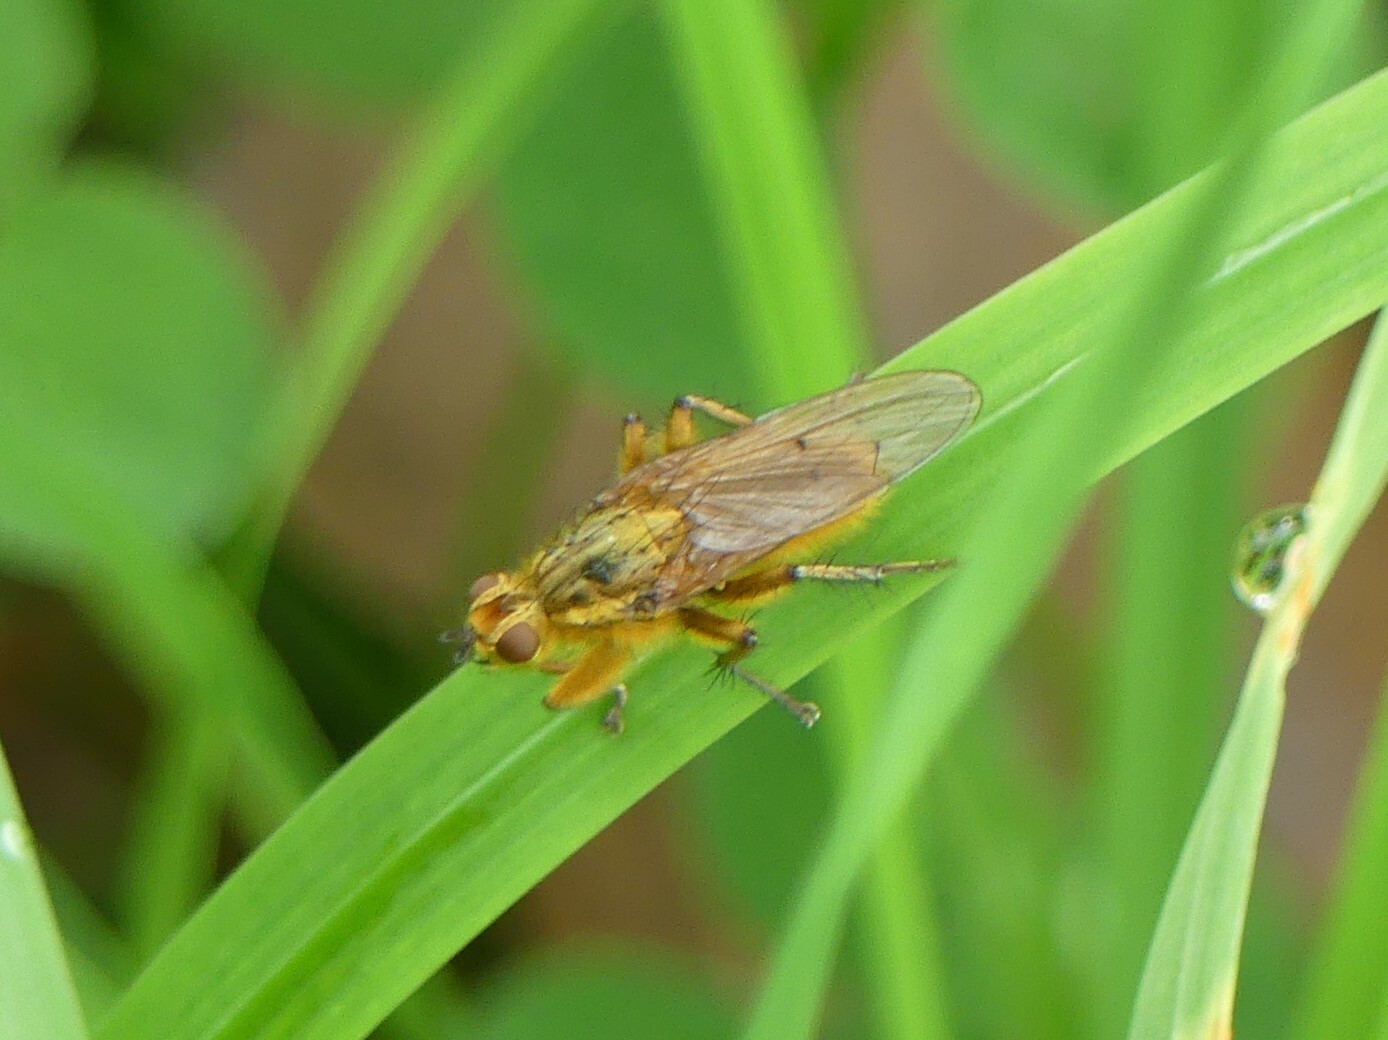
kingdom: Animalia
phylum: Arthropoda
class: Insecta
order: Diptera
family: Scathophagidae
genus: Scathophaga
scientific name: Scathophaga stercoraria
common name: Yellow dung fly
